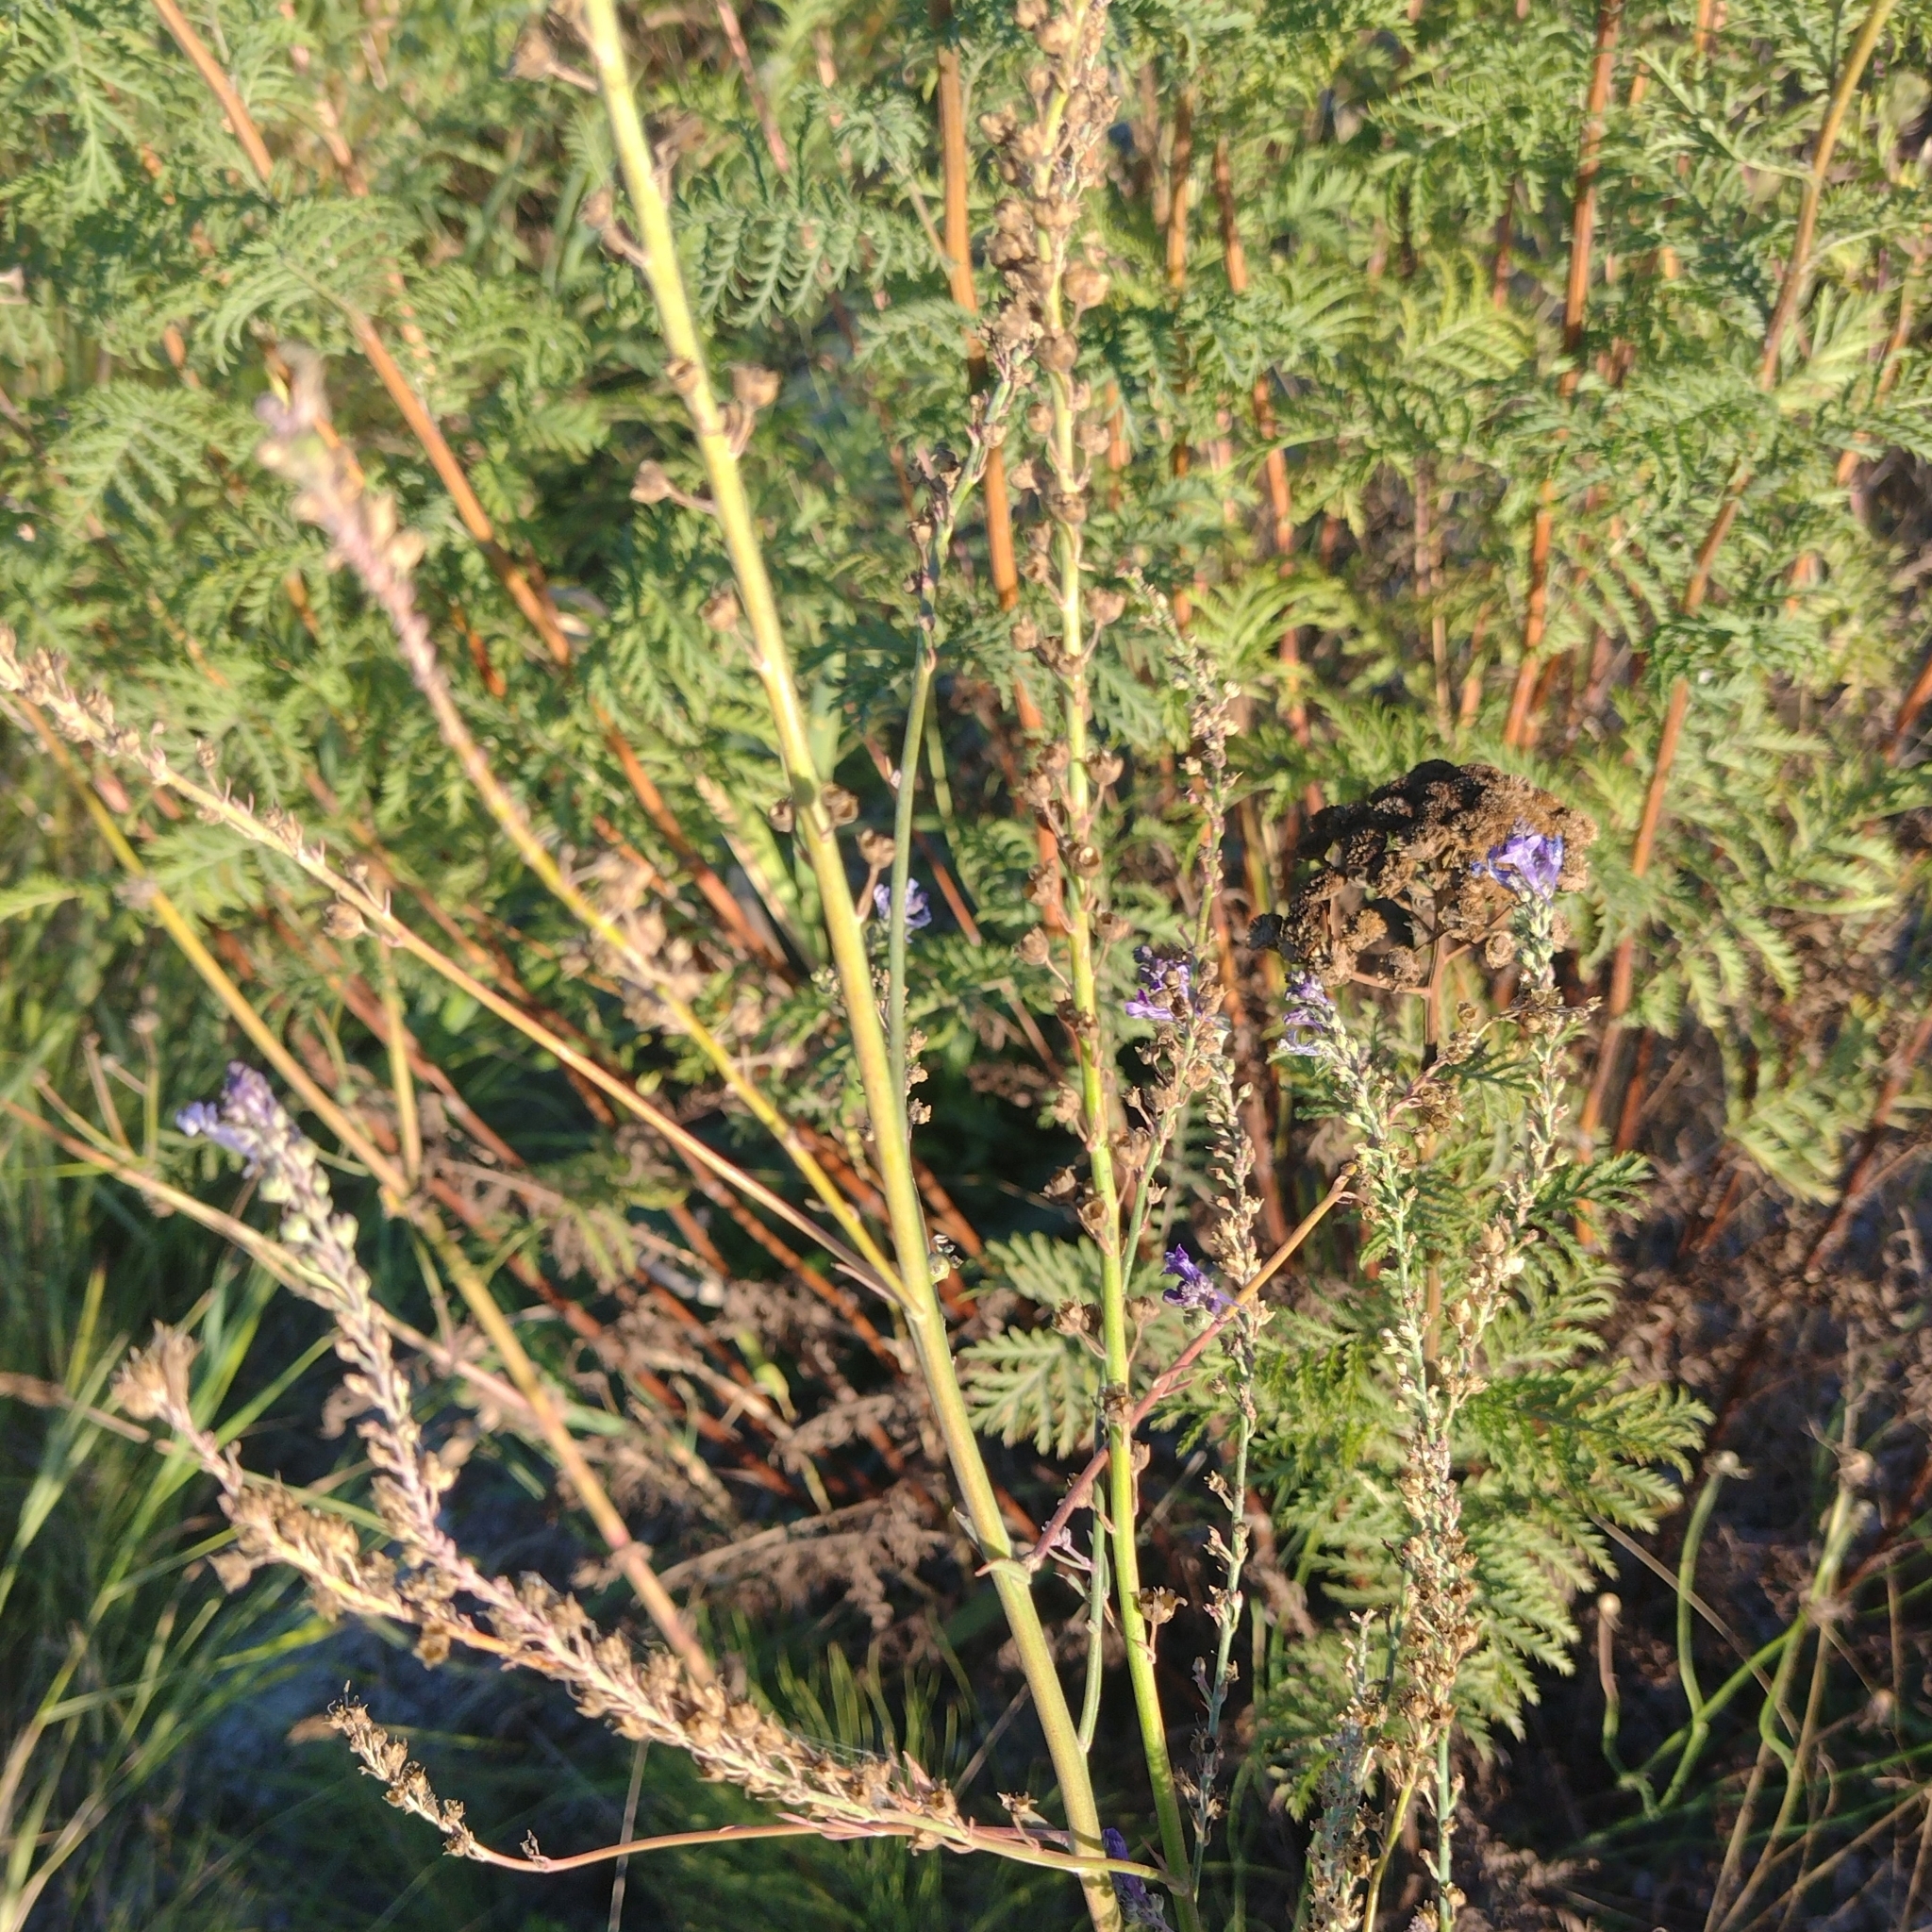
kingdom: Plantae
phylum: Tracheophyta
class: Magnoliopsida
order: Lamiales
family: Plantaginaceae
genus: Linaria
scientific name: Linaria purpurea
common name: Purple toadflax
